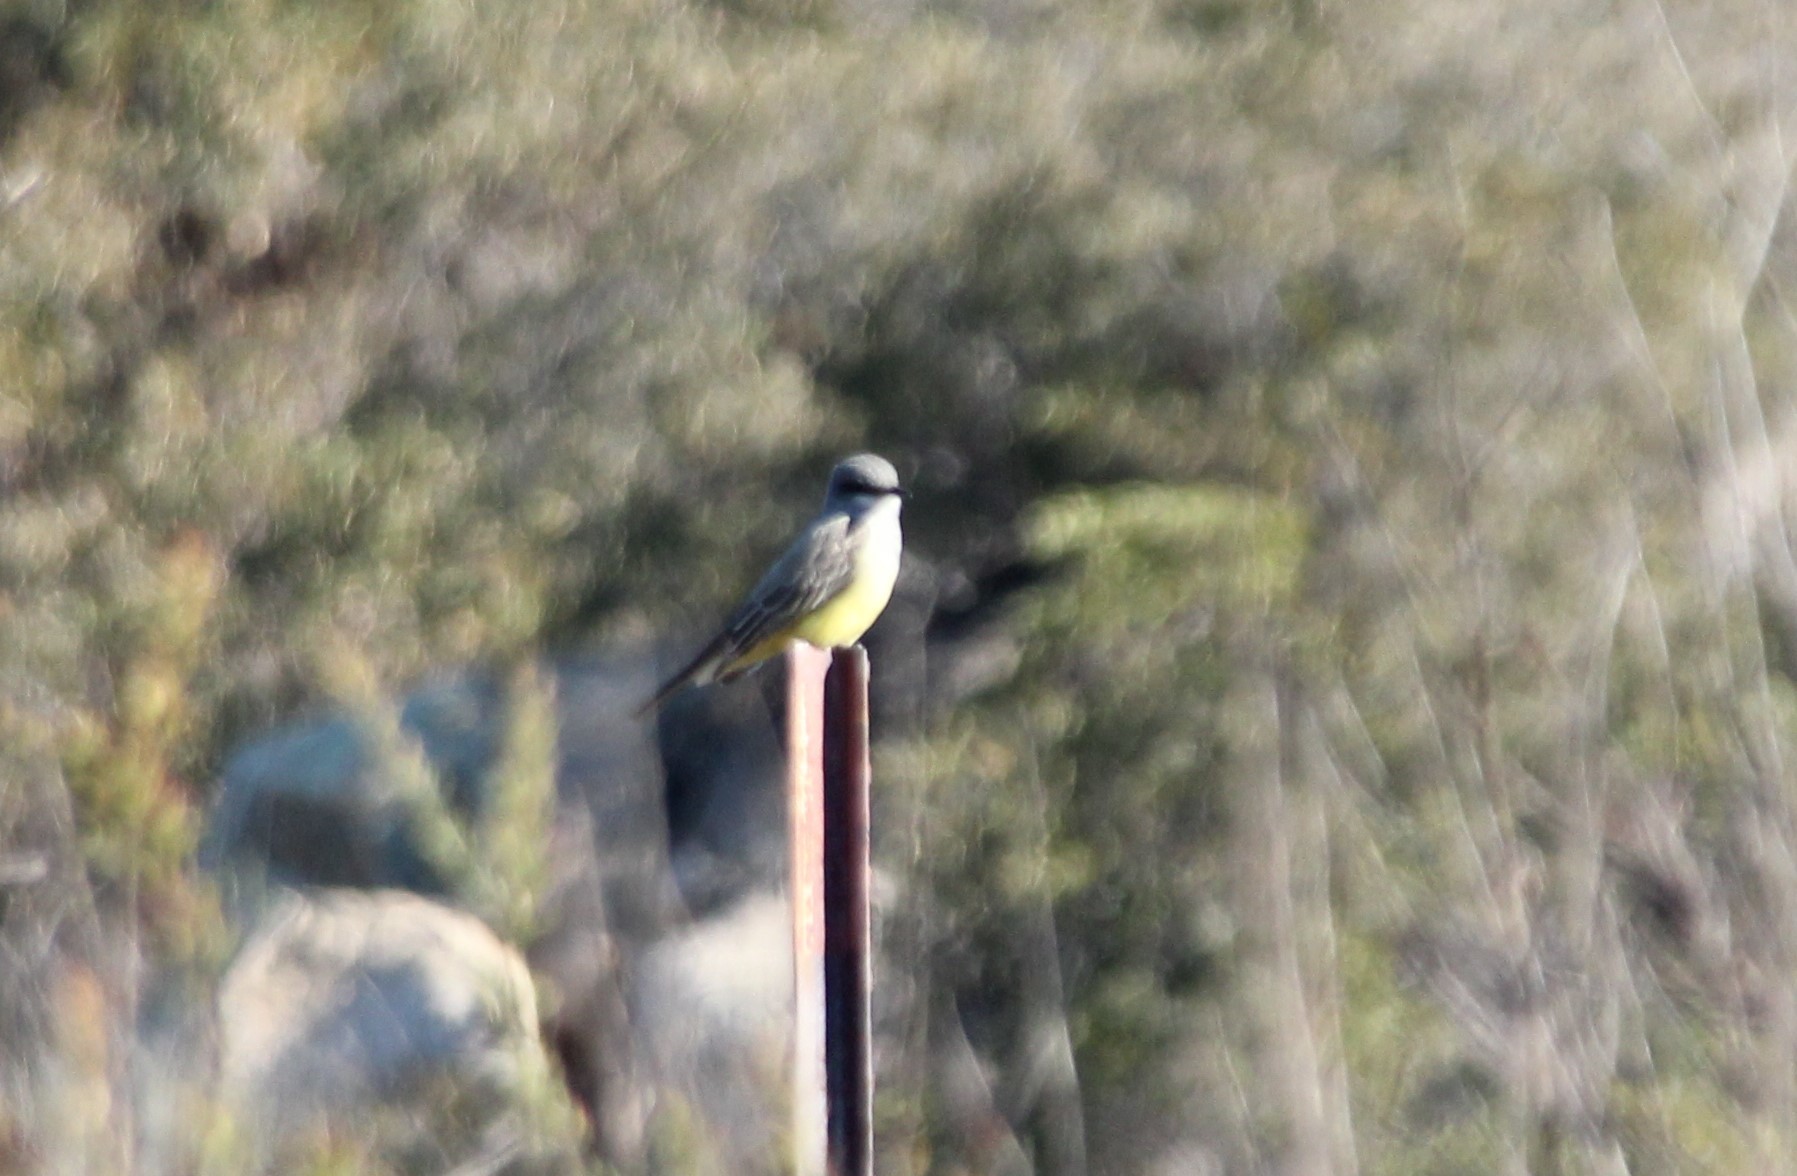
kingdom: Animalia
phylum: Chordata
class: Aves
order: Passeriformes
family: Tyrannidae
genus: Tyrannus
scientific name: Tyrannus vociferans
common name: Cassin's kingbird
